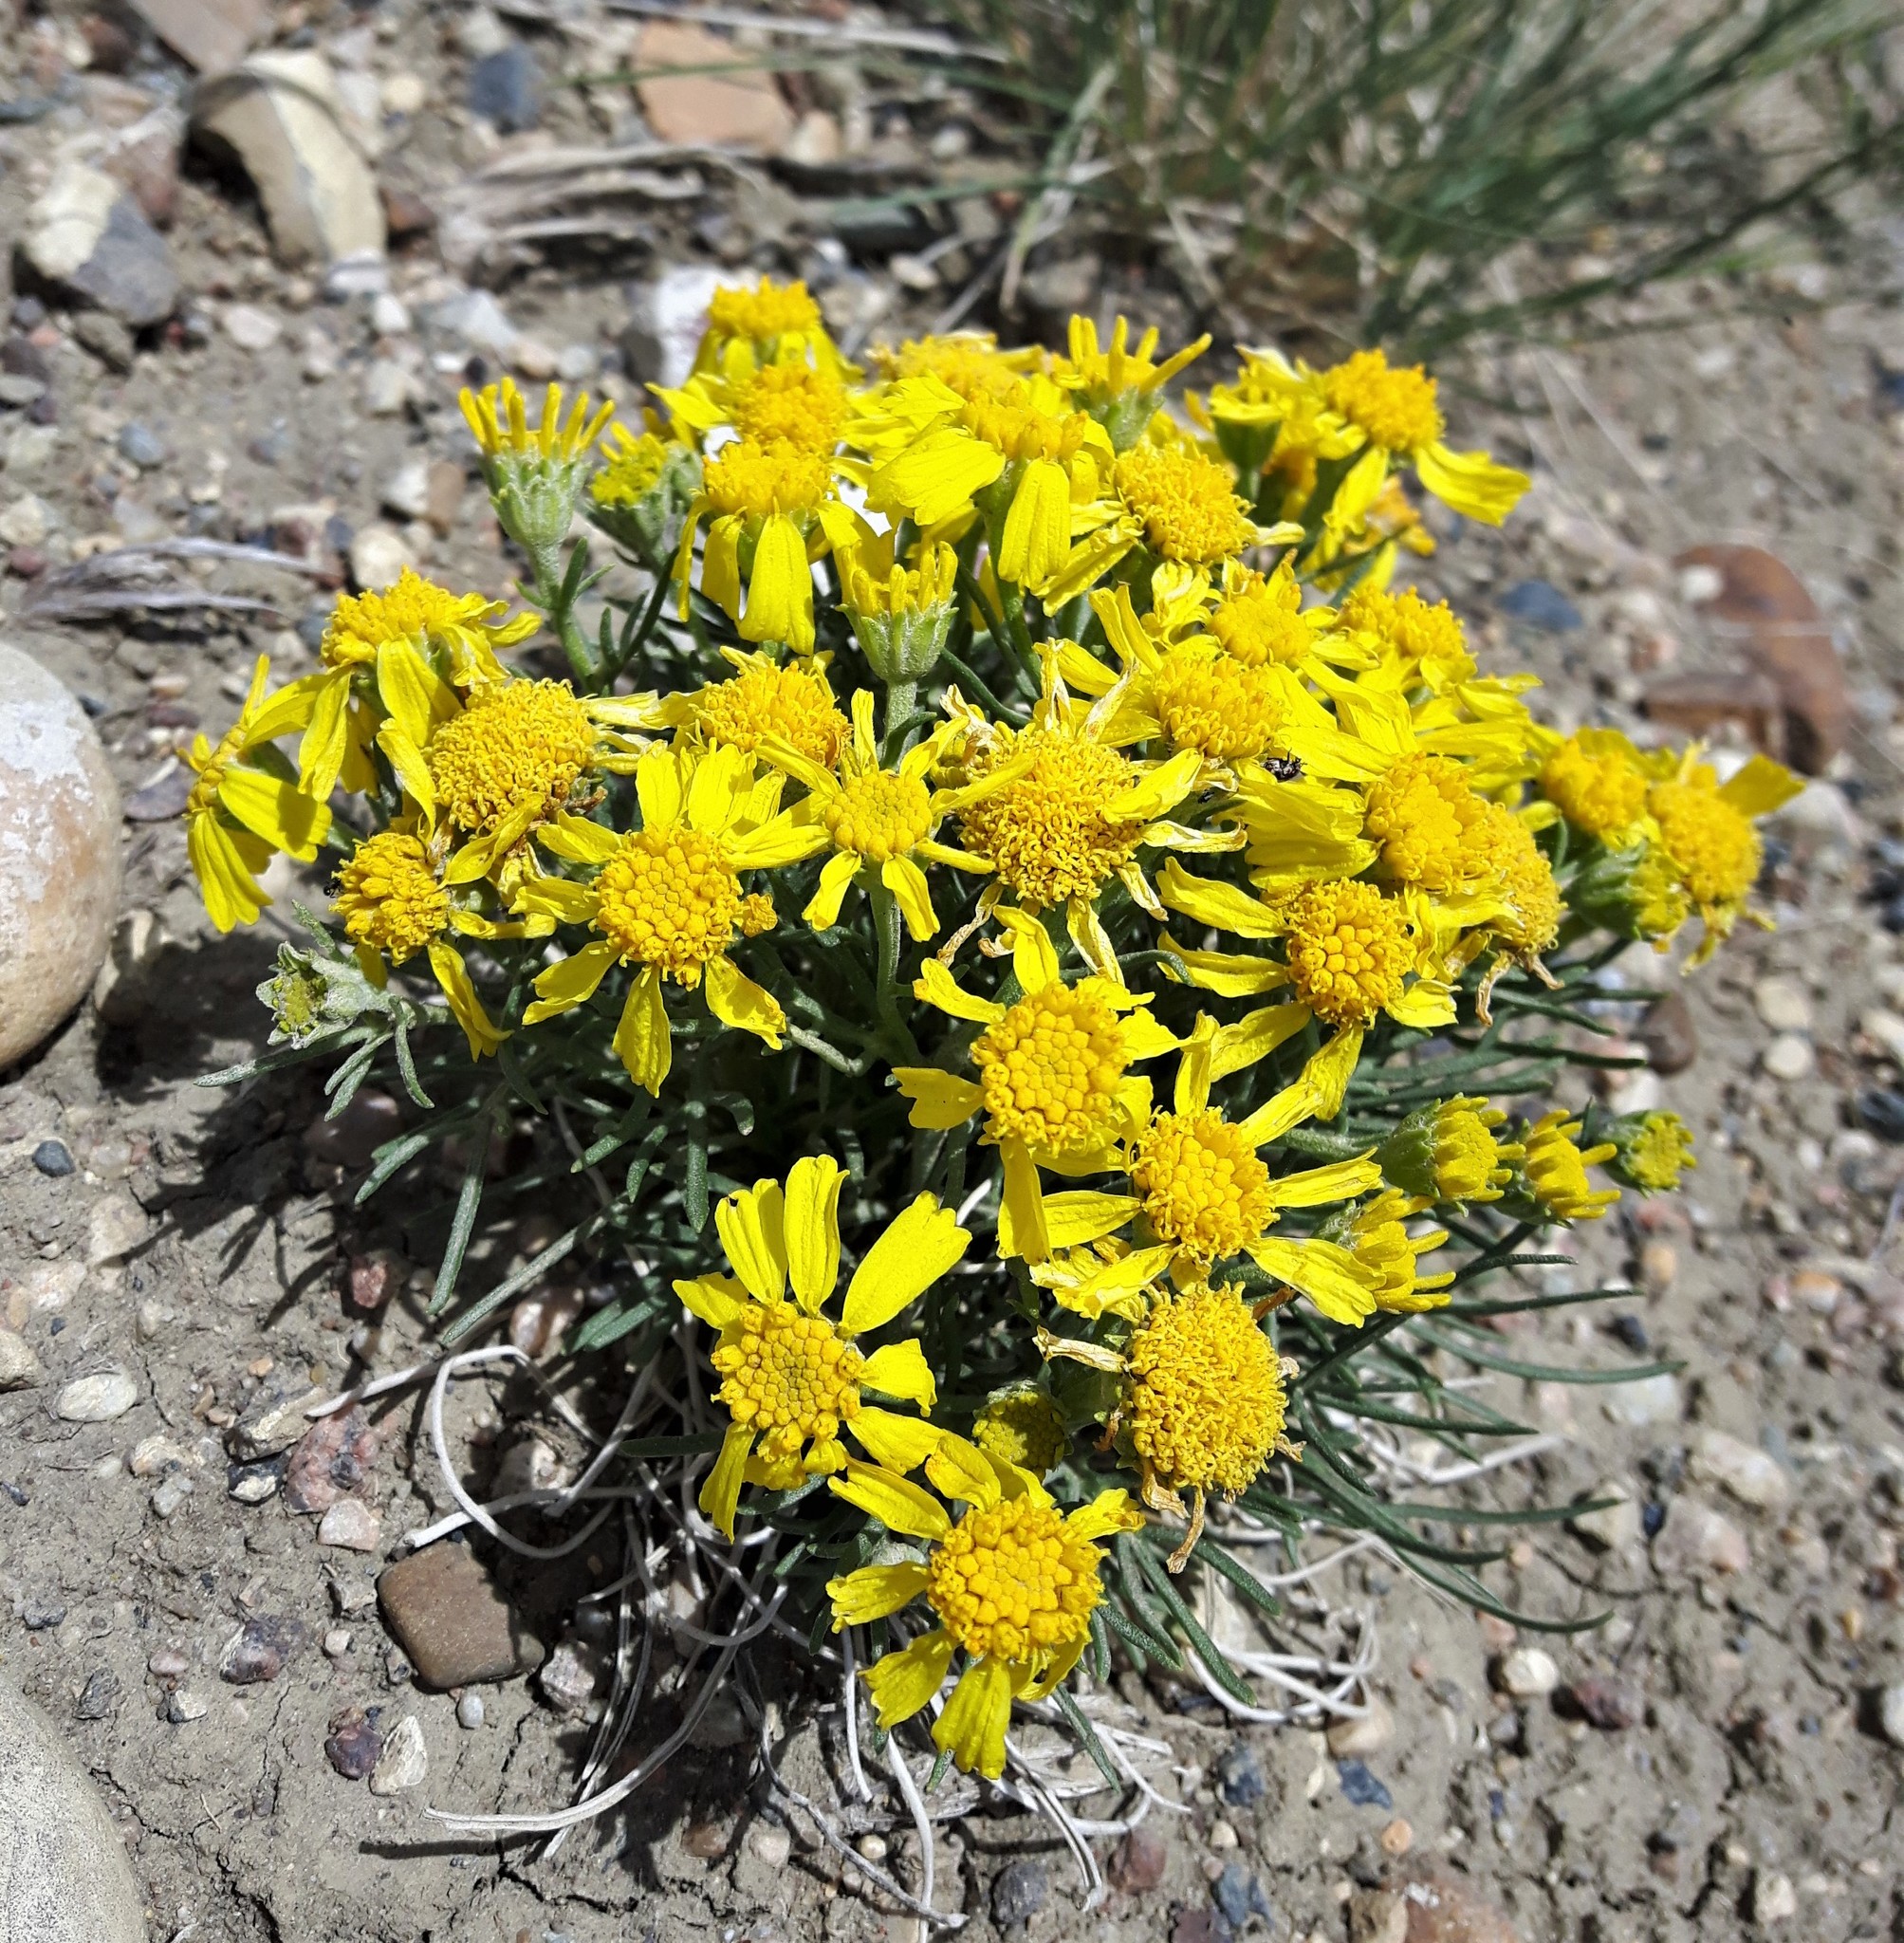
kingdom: Plantae
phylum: Tracheophyta
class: Magnoliopsida
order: Asterales
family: Asteraceae
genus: Hymenoxys
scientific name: Hymenoxys richardsonii
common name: Pingue rubberweed
